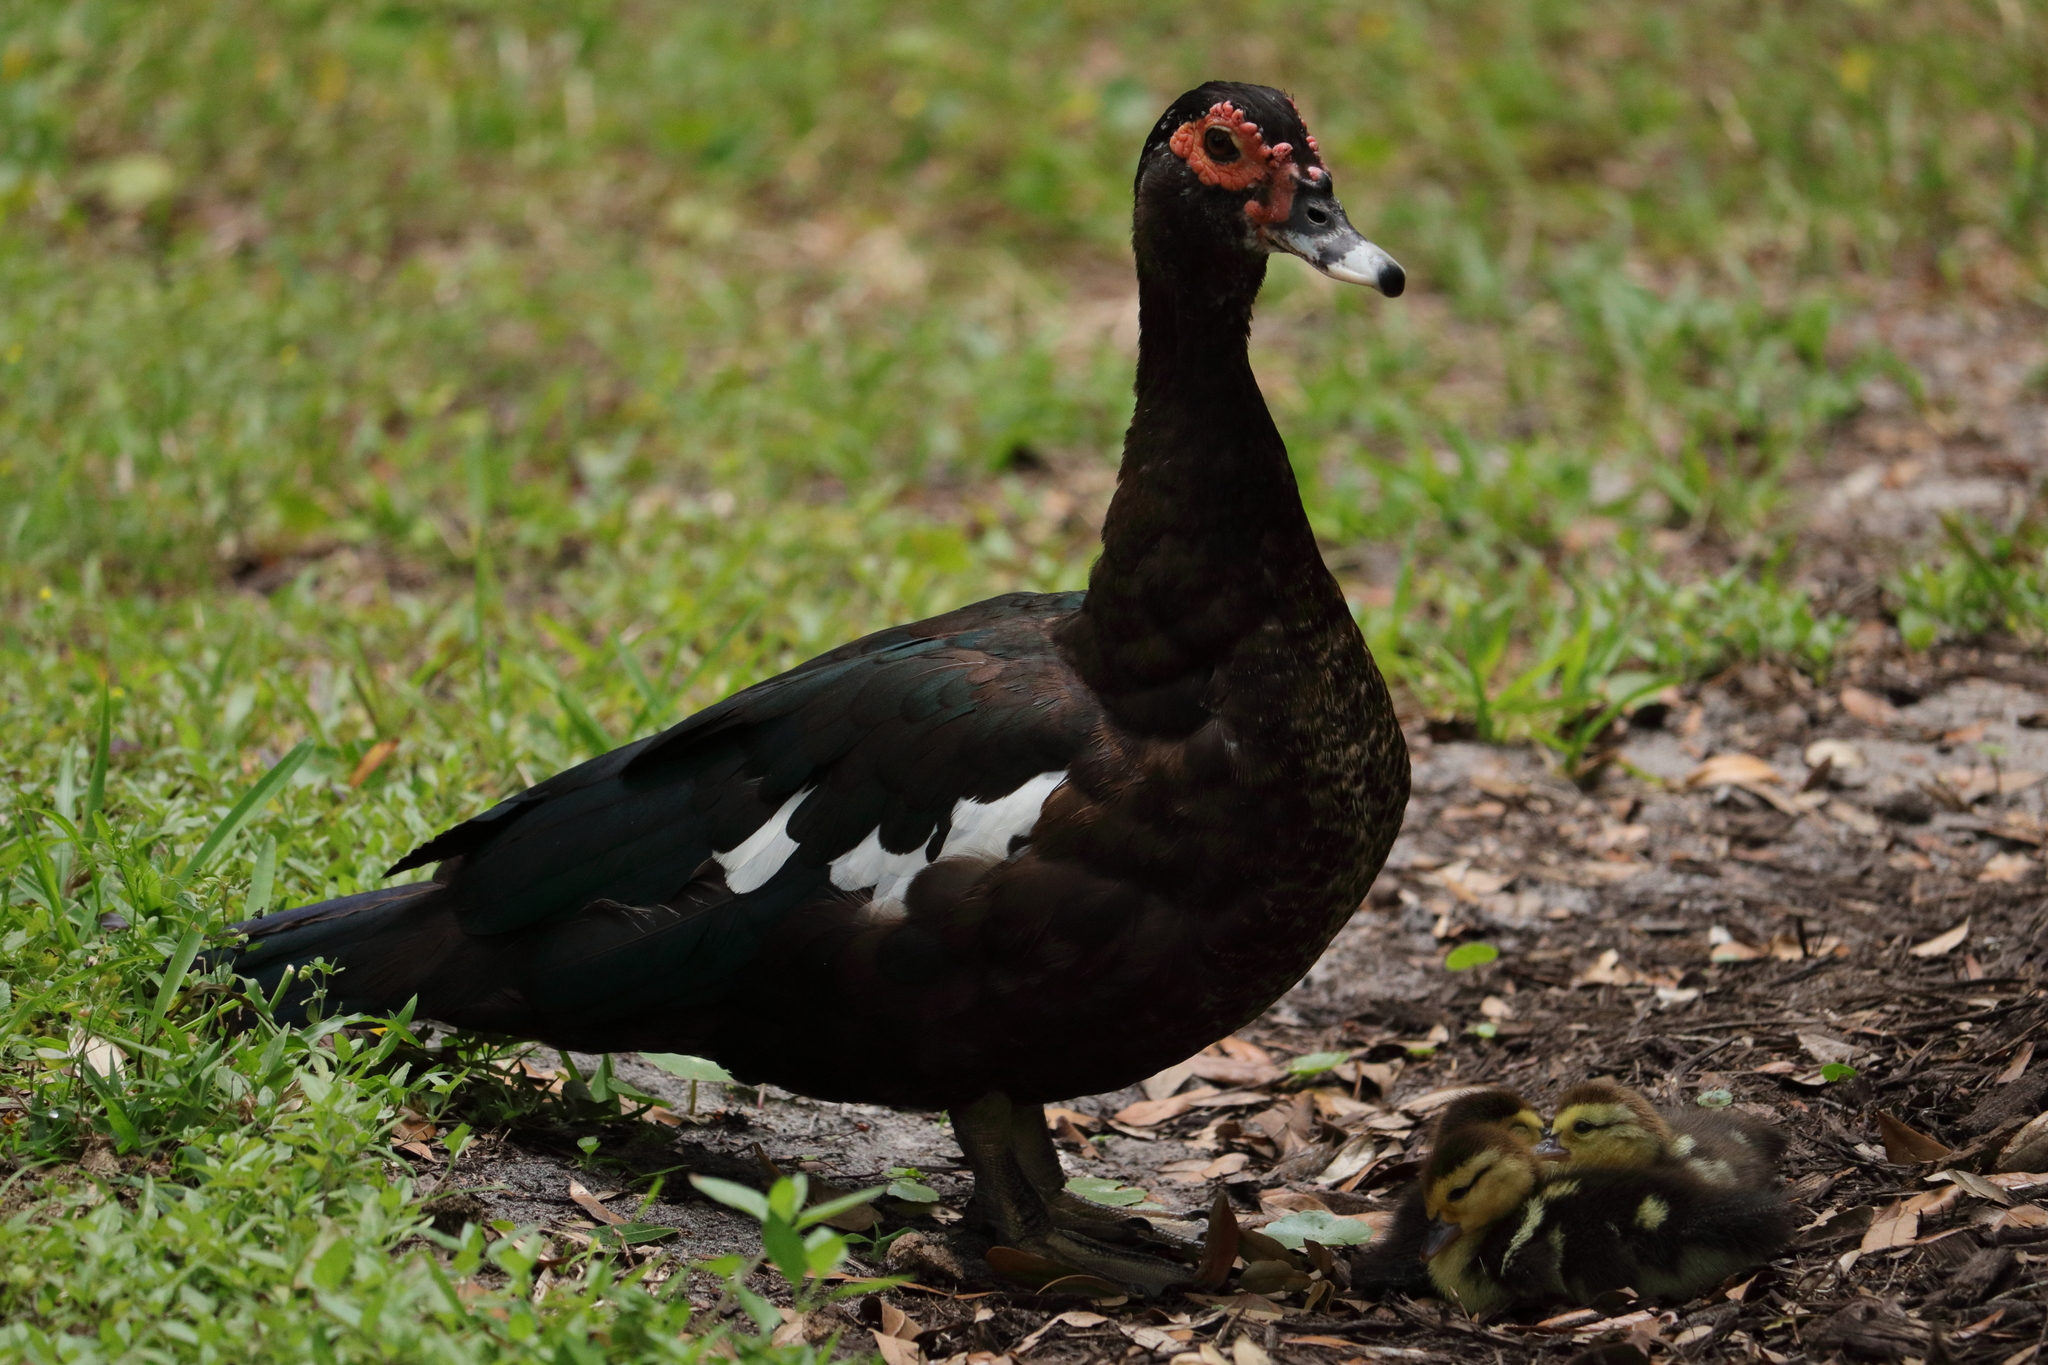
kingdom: Animalia
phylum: Chordata
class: Aves
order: Anseriformes
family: Anatidae
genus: Cairina
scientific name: Cairina moschata
